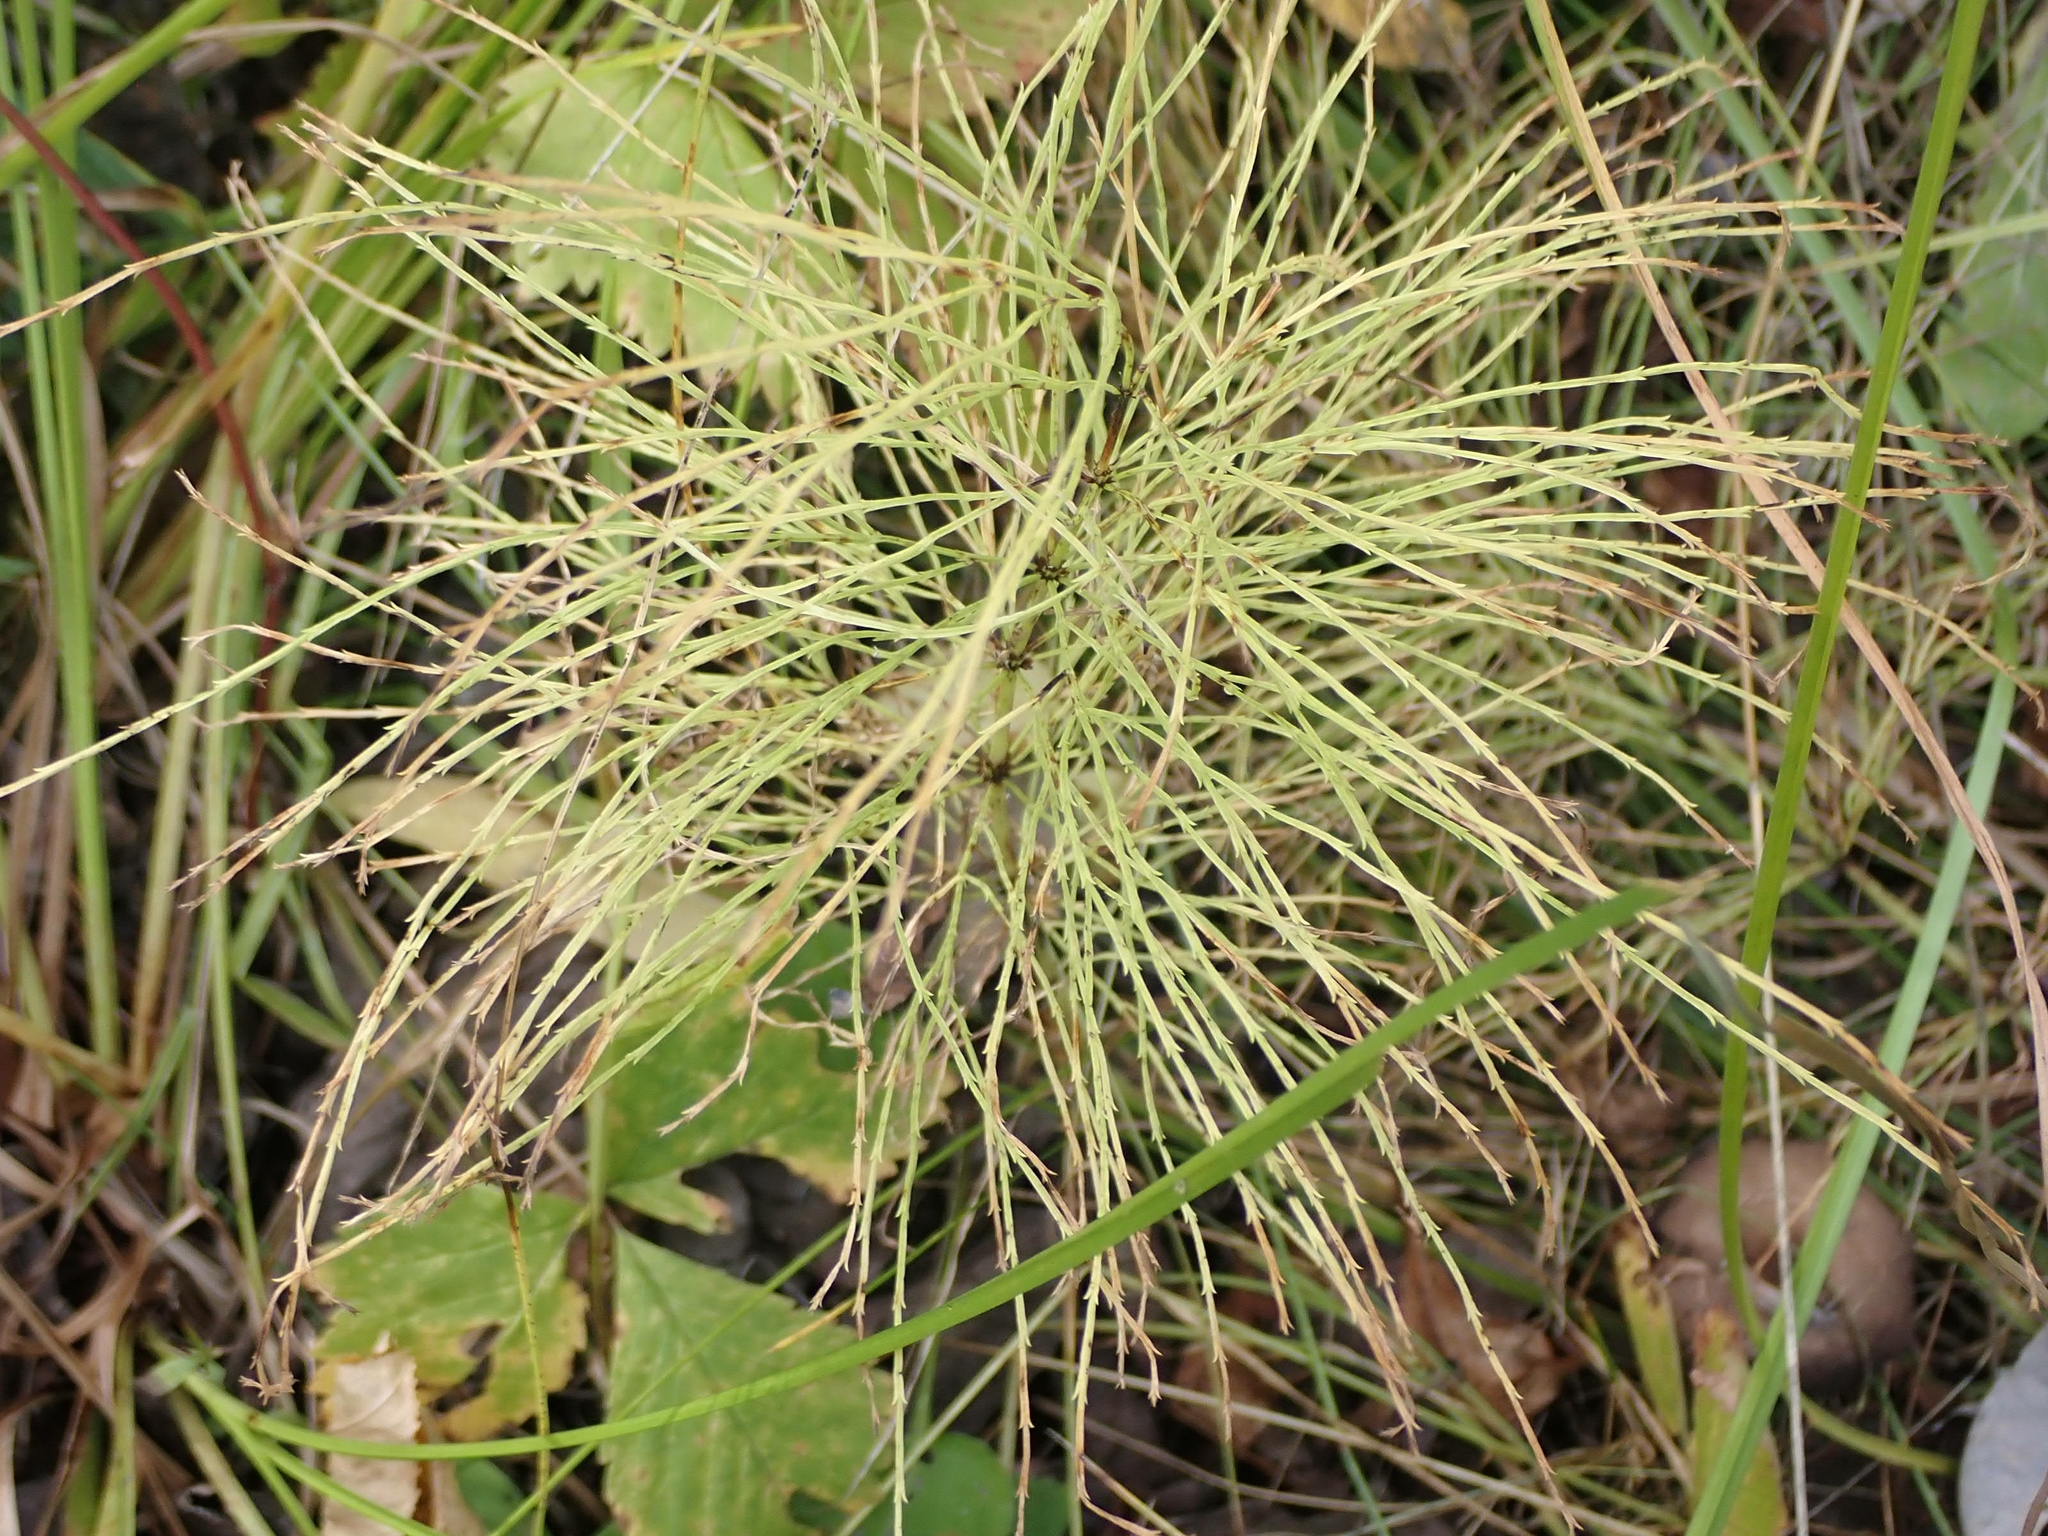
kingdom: Plantae
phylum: Tracheophyta
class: Polypodiopsida
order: Equisetales
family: Equisetaceae
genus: Equisetum
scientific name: Equisetum sylvaticum
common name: Wood horsetail
